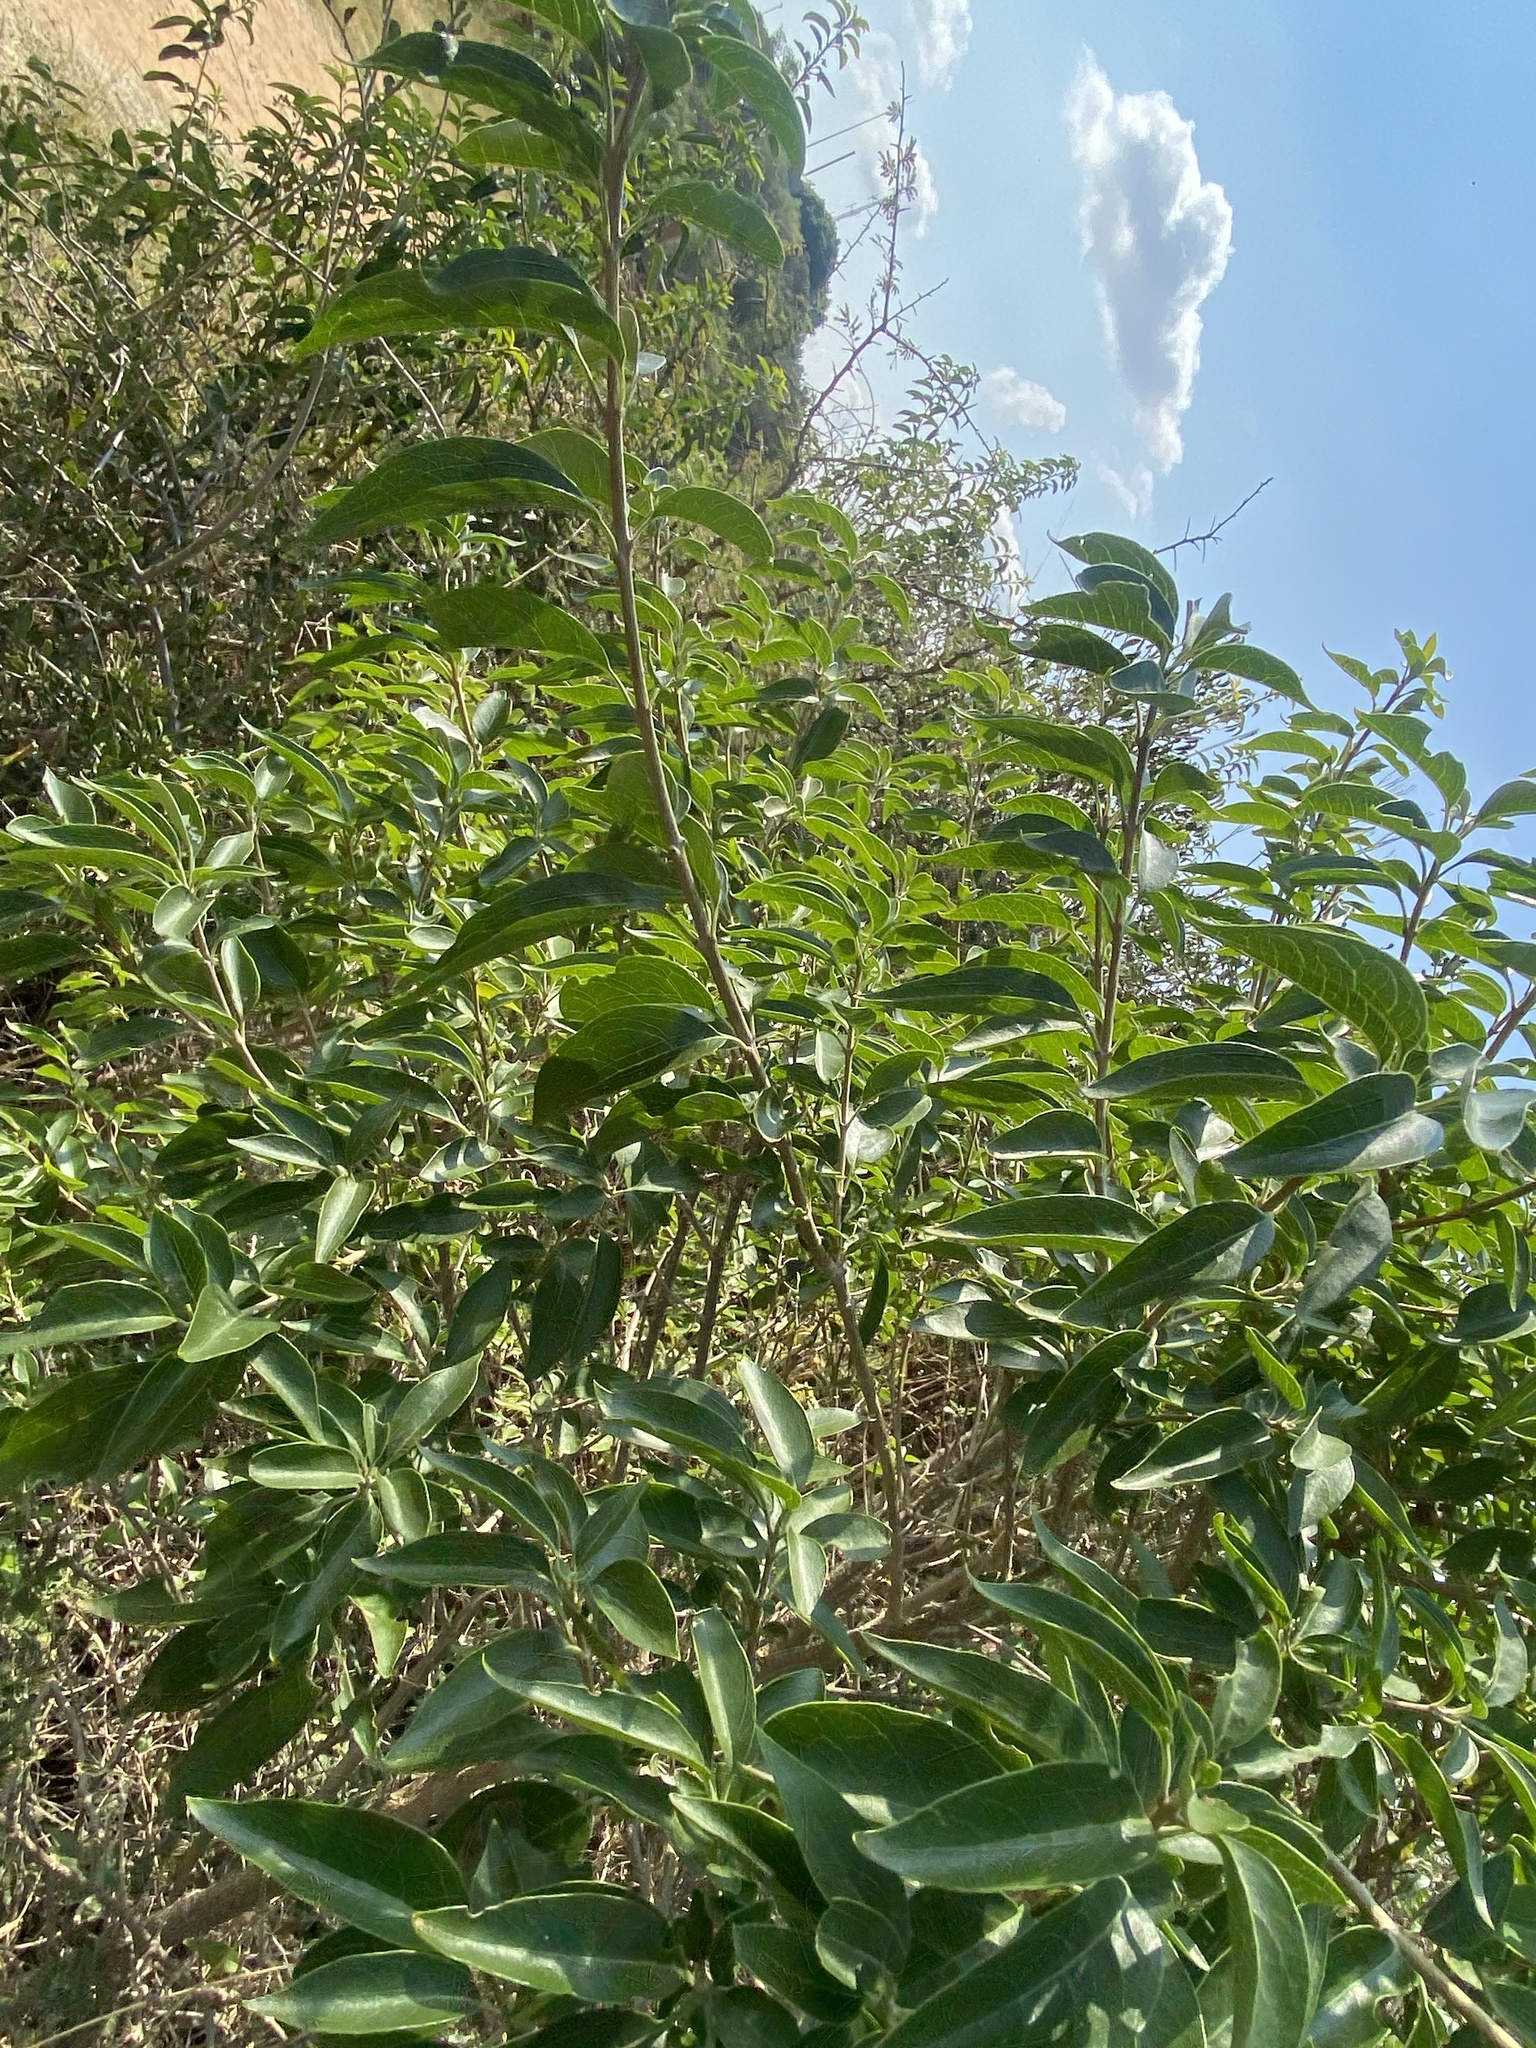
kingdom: Plantae
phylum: Tracheophyta
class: Magnoliopsida
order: Lamiales
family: Lamiaceae
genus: Volkameria
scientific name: Volkameria glabra
